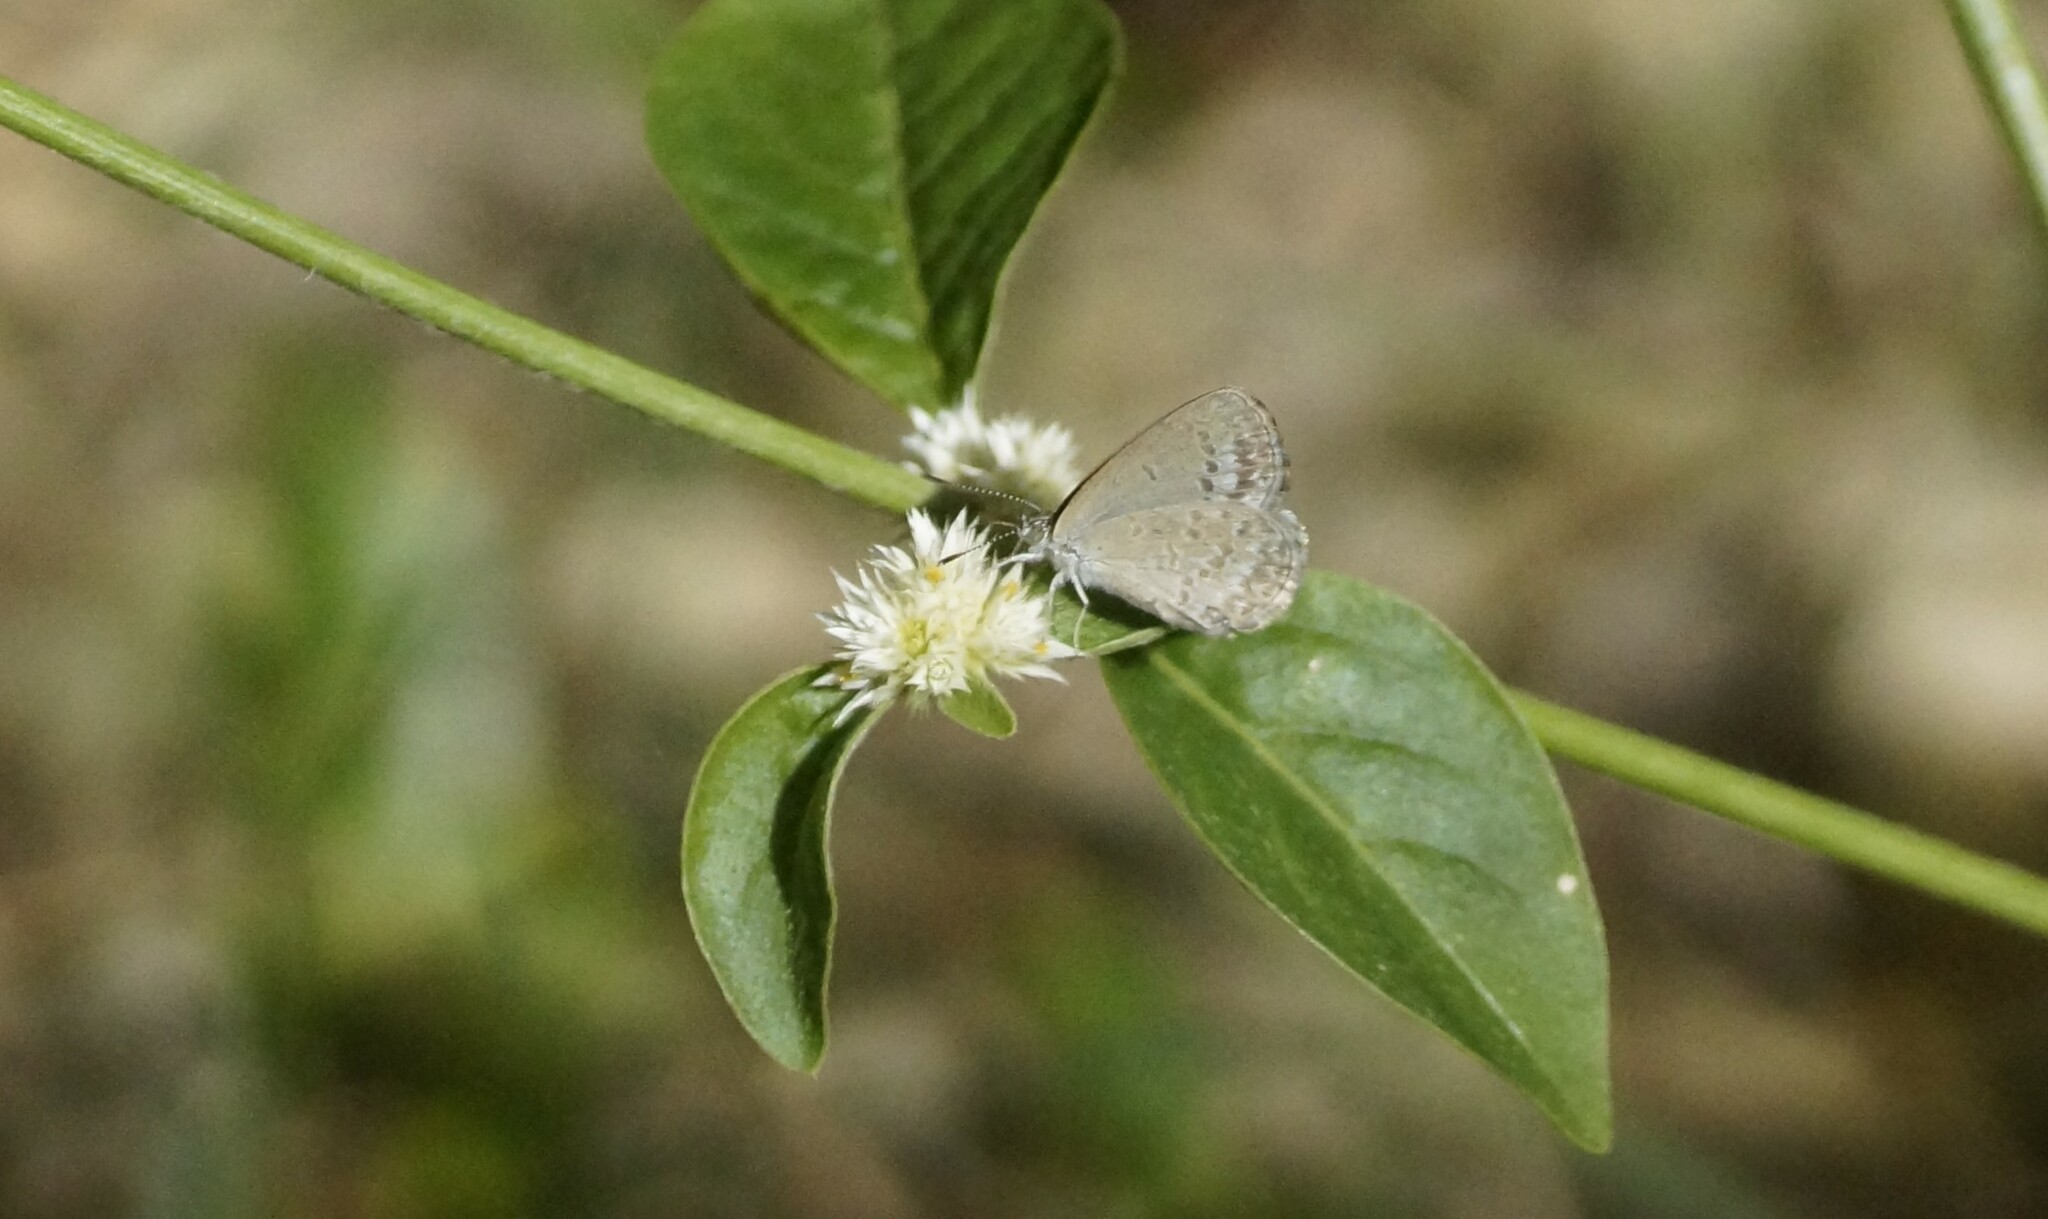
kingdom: Animalia
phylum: Arthropoda
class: Insecta
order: Lepidoptera
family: Lycaenidae
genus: Zizina
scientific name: Zizina otis
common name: Lesser grass blue
